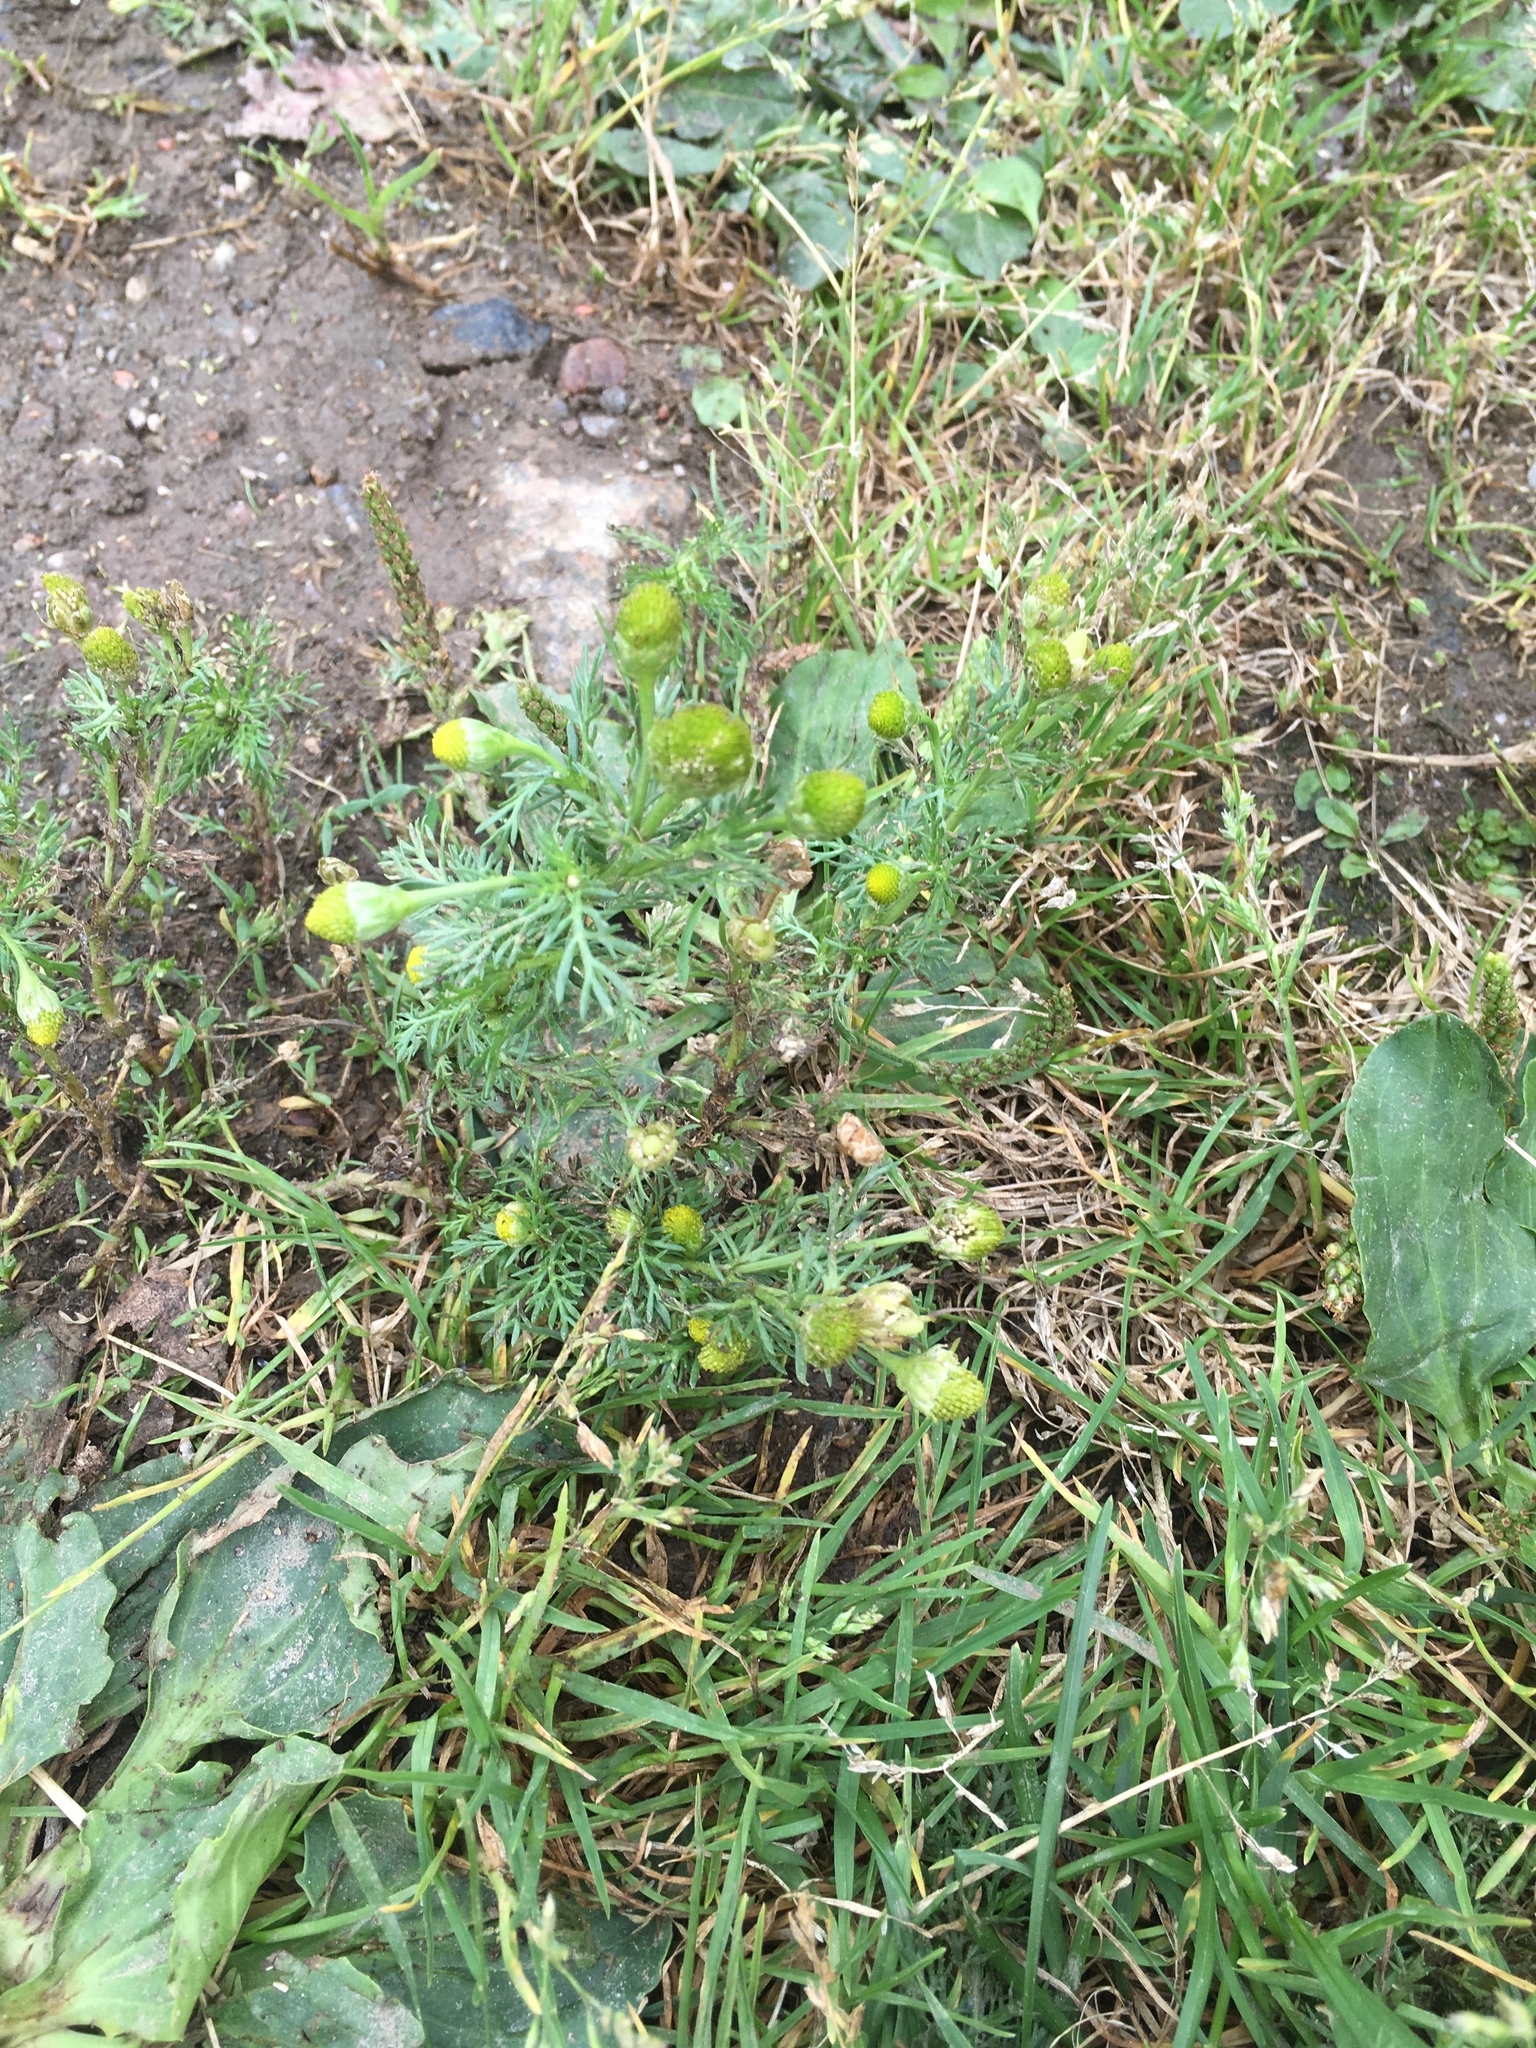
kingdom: Plantae
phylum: Tracheophyta
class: Magnoliopsida
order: Asterales
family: Asteraceae
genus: Matricaria
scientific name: Matricaria discoidea
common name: Disc mayweed
